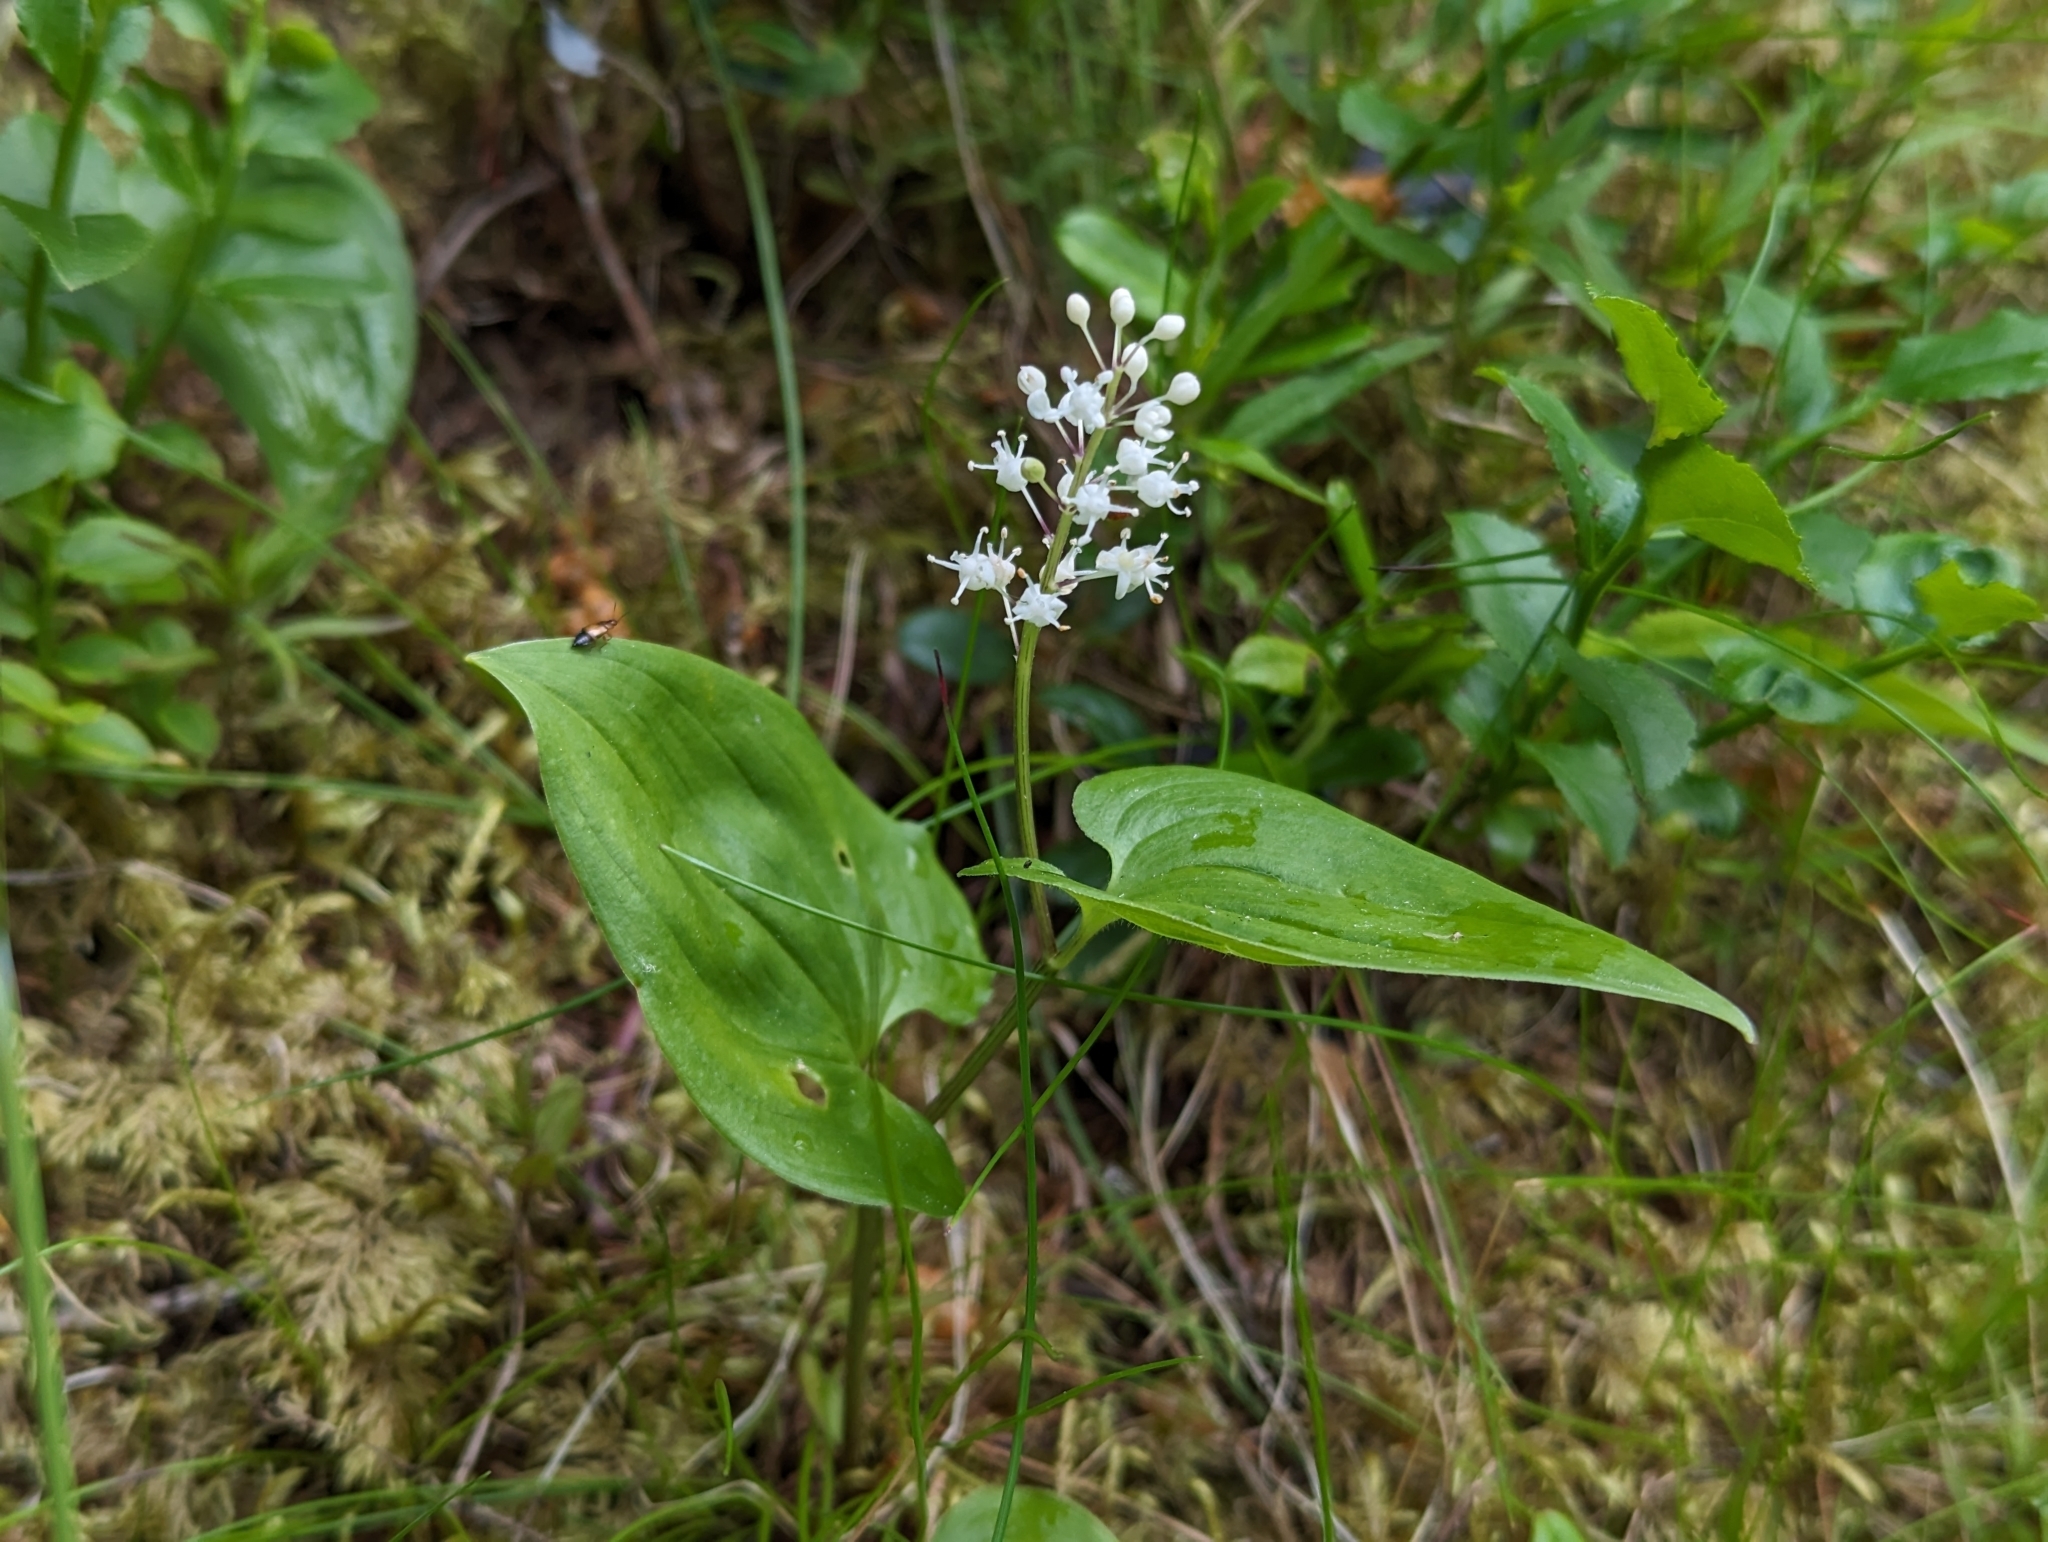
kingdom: Plantae
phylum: Tracheophyta
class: Liliopsida
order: Asparagales
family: Asparagaceae
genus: Maianthemum
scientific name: Maianthemum bifolium
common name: May lily
